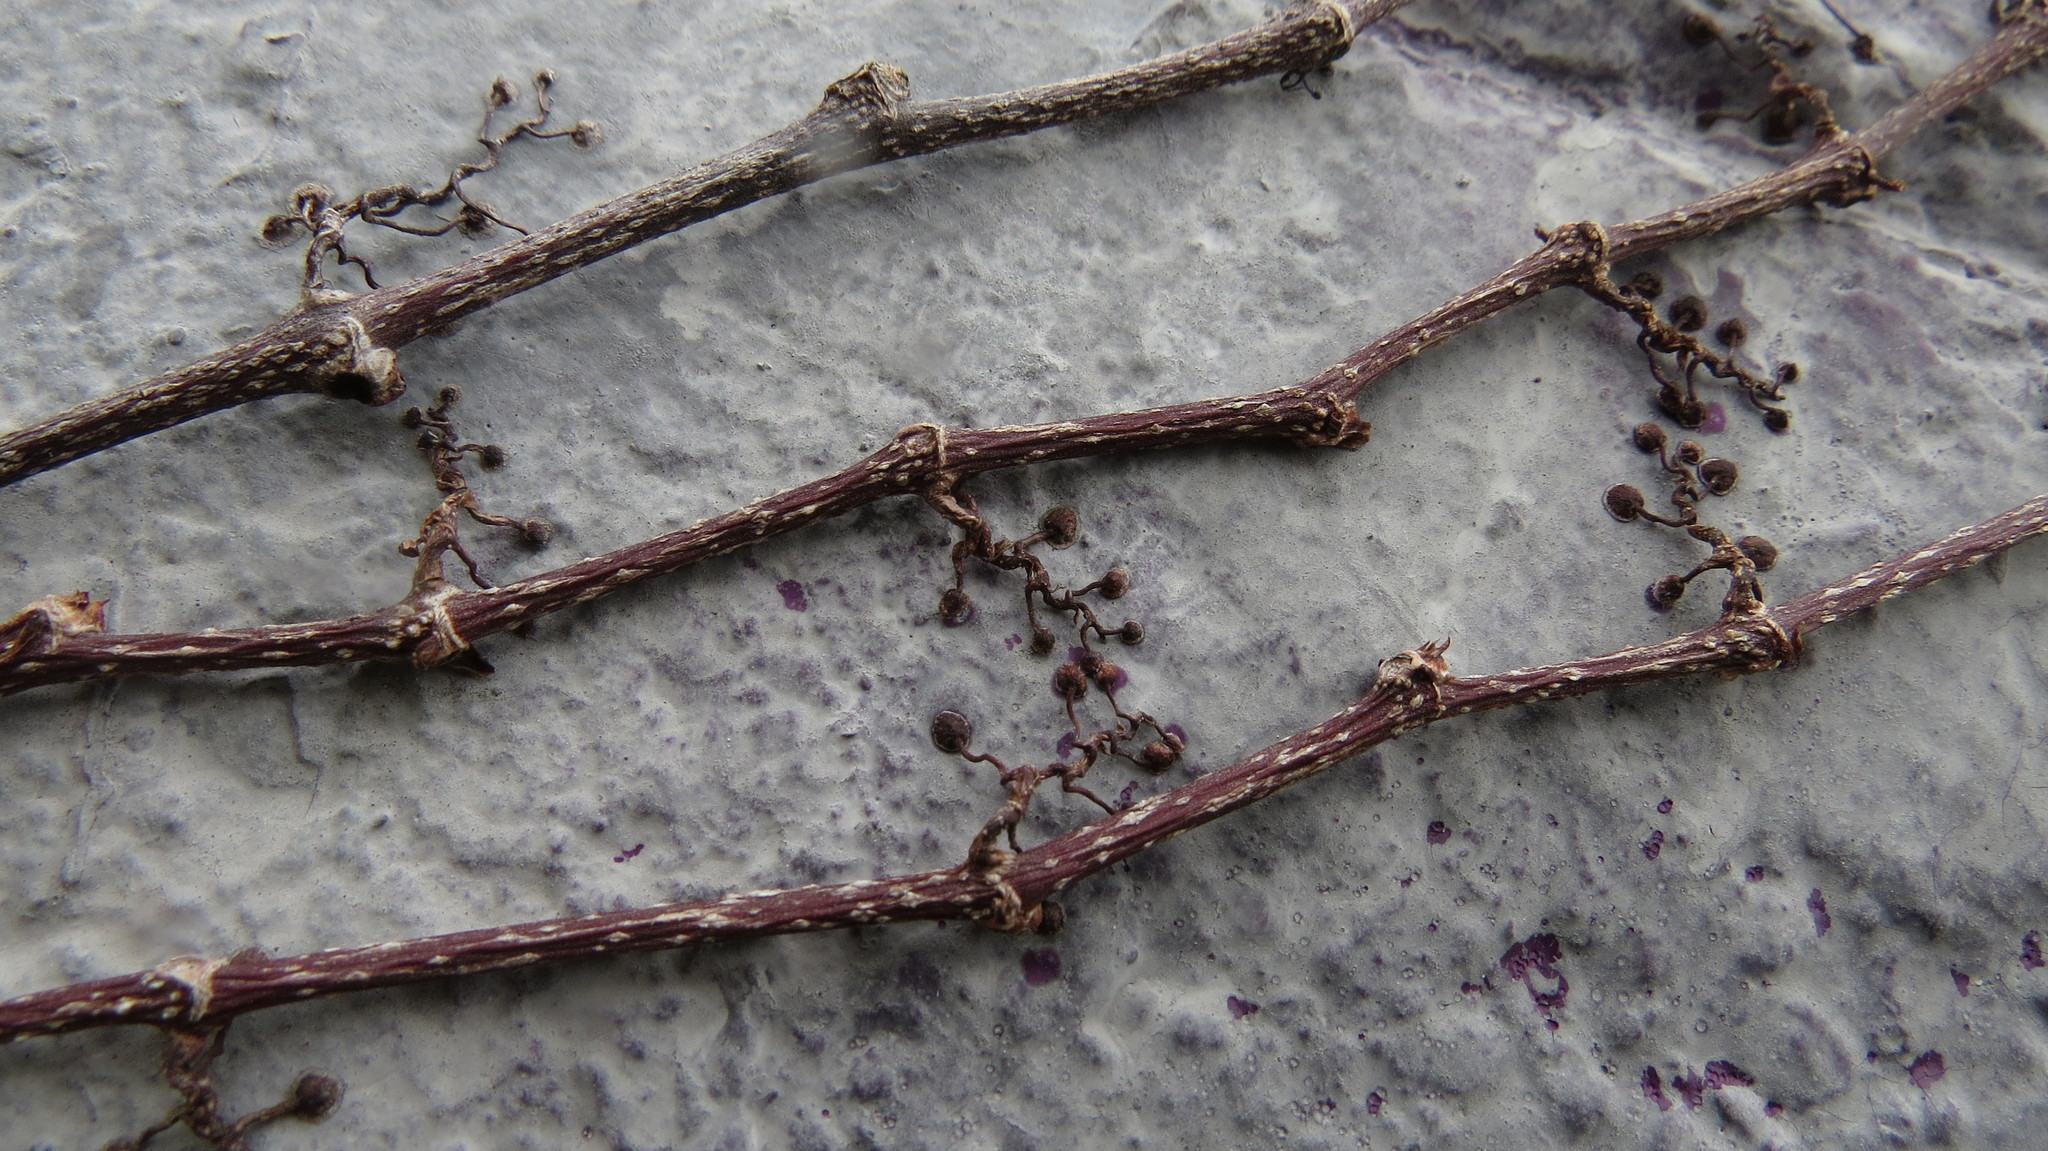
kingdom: Plantae
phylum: Tracheophyta
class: Magnoliopsida
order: Vitales
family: Vitaceae
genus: Parthenocissus
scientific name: Parthenocissus tricuspidata
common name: Boston ivy
